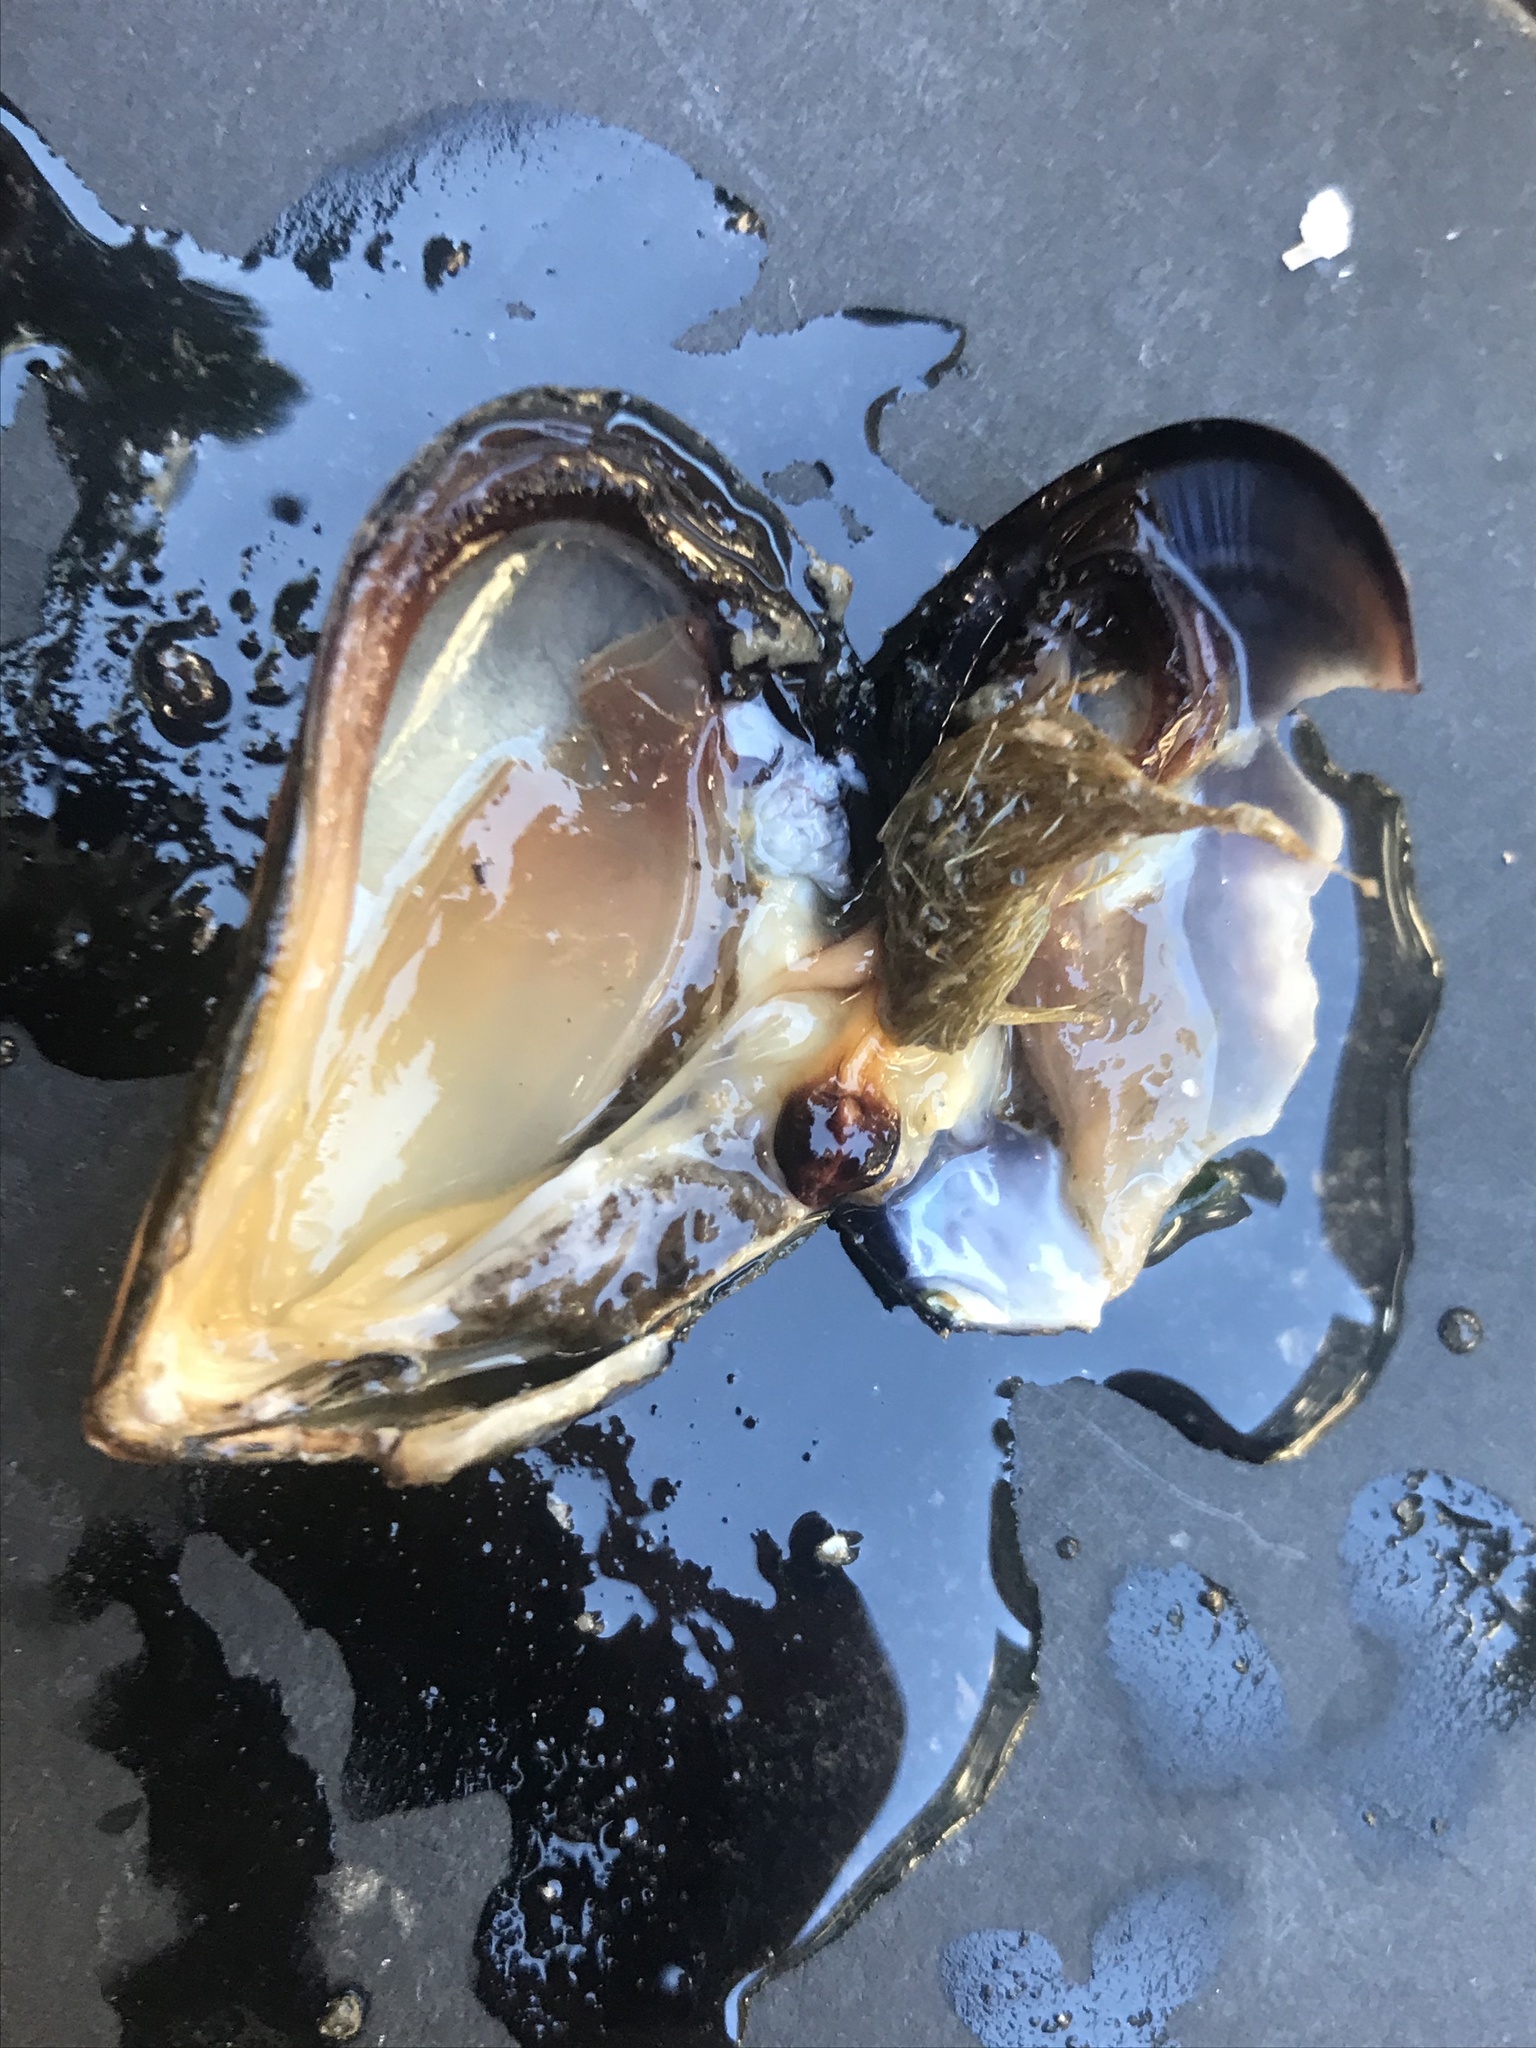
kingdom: Animalia
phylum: Mollusca
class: Bivalvia
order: Mytilida
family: Mytilidae
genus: Mytilus
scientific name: Mytilus
